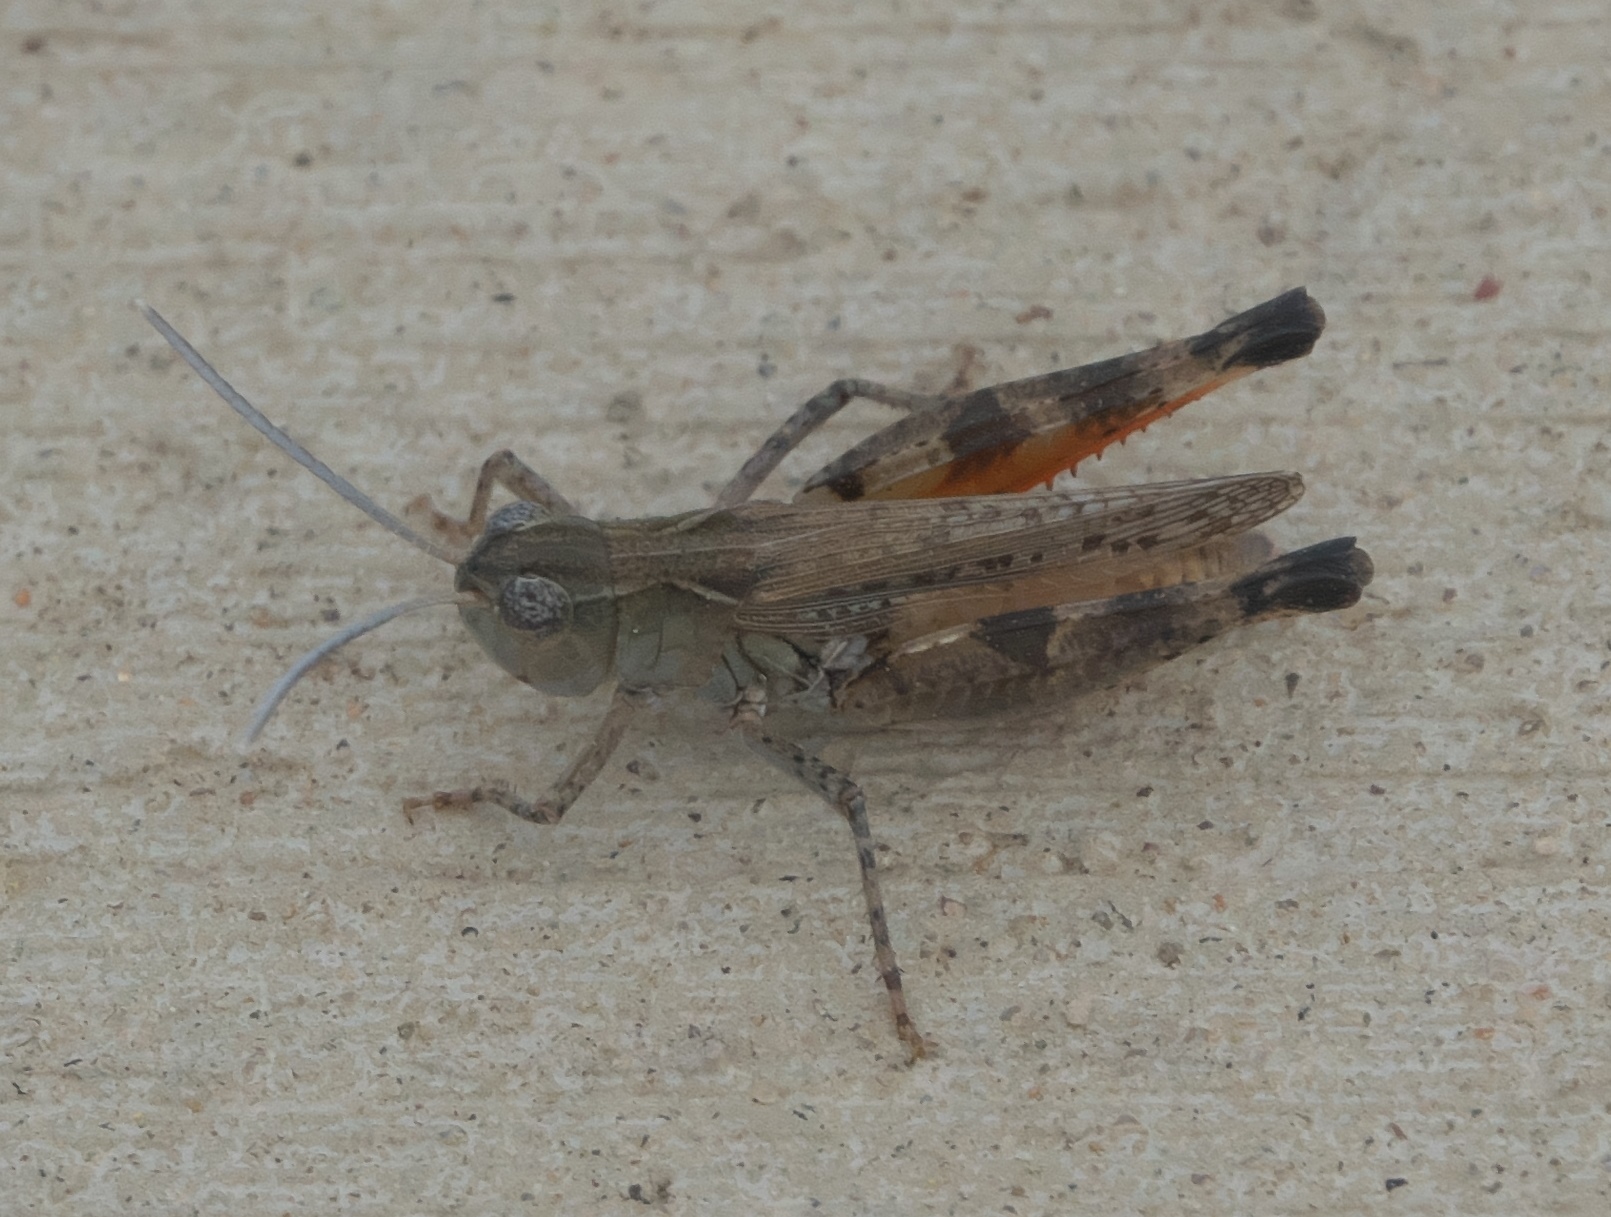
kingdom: Animalia
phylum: Arthropoda
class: Insecta
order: Orthoptera
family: Acrididae
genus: Ageneotettix
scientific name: Ageneotettix deorum
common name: White-whiskered grasshopper
